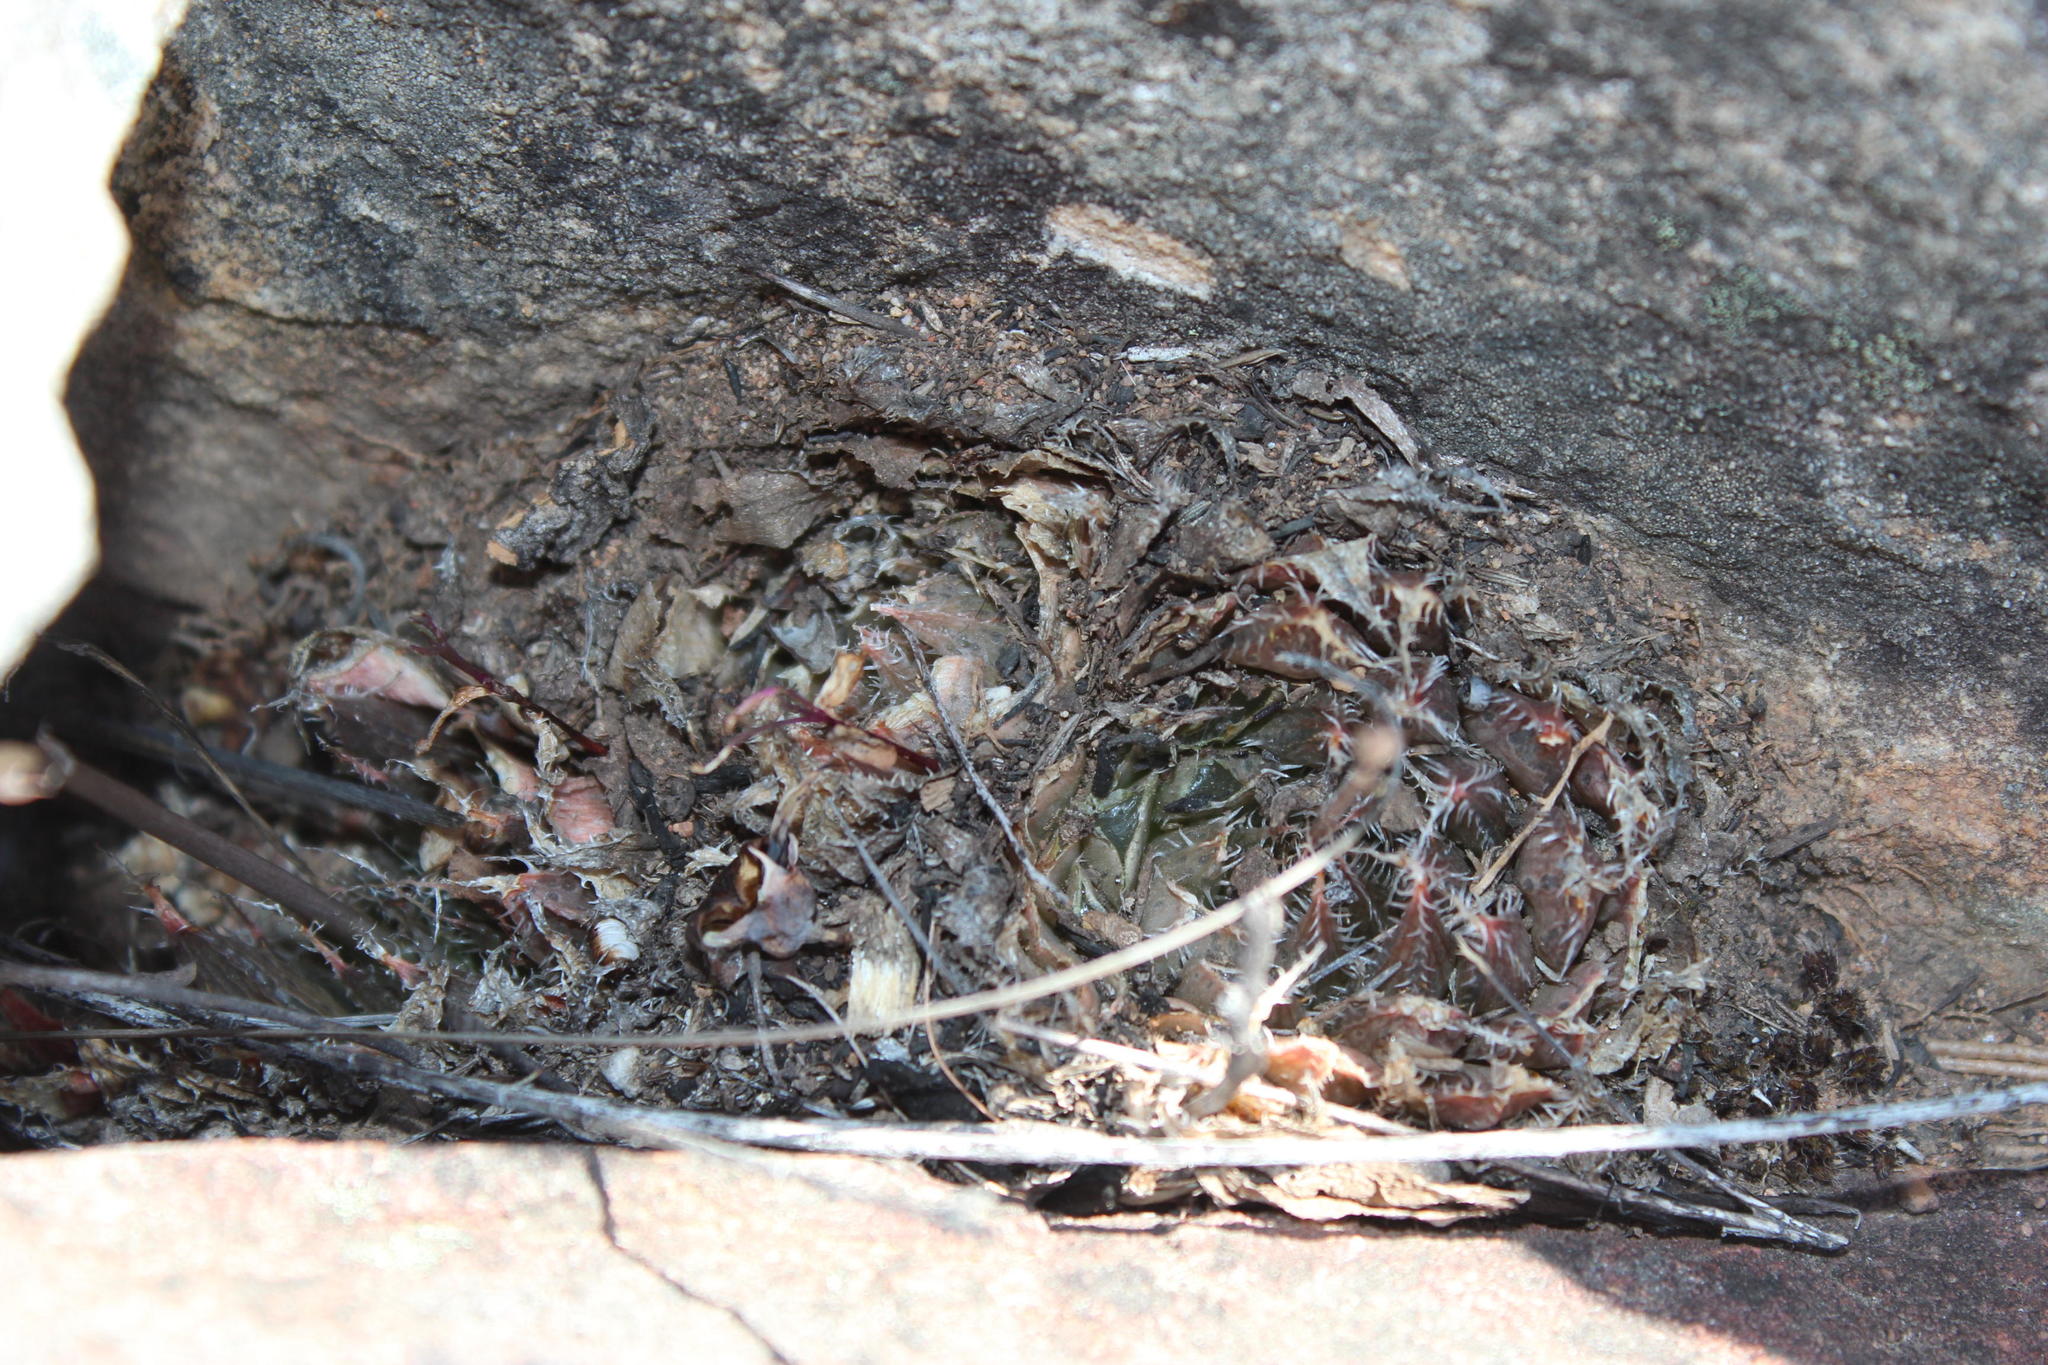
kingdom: Plantae
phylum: Tracheophyta
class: Liliopsida
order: Asparagales
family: Asphodelaceae
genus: Haworthia
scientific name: Haworthia nortieri
